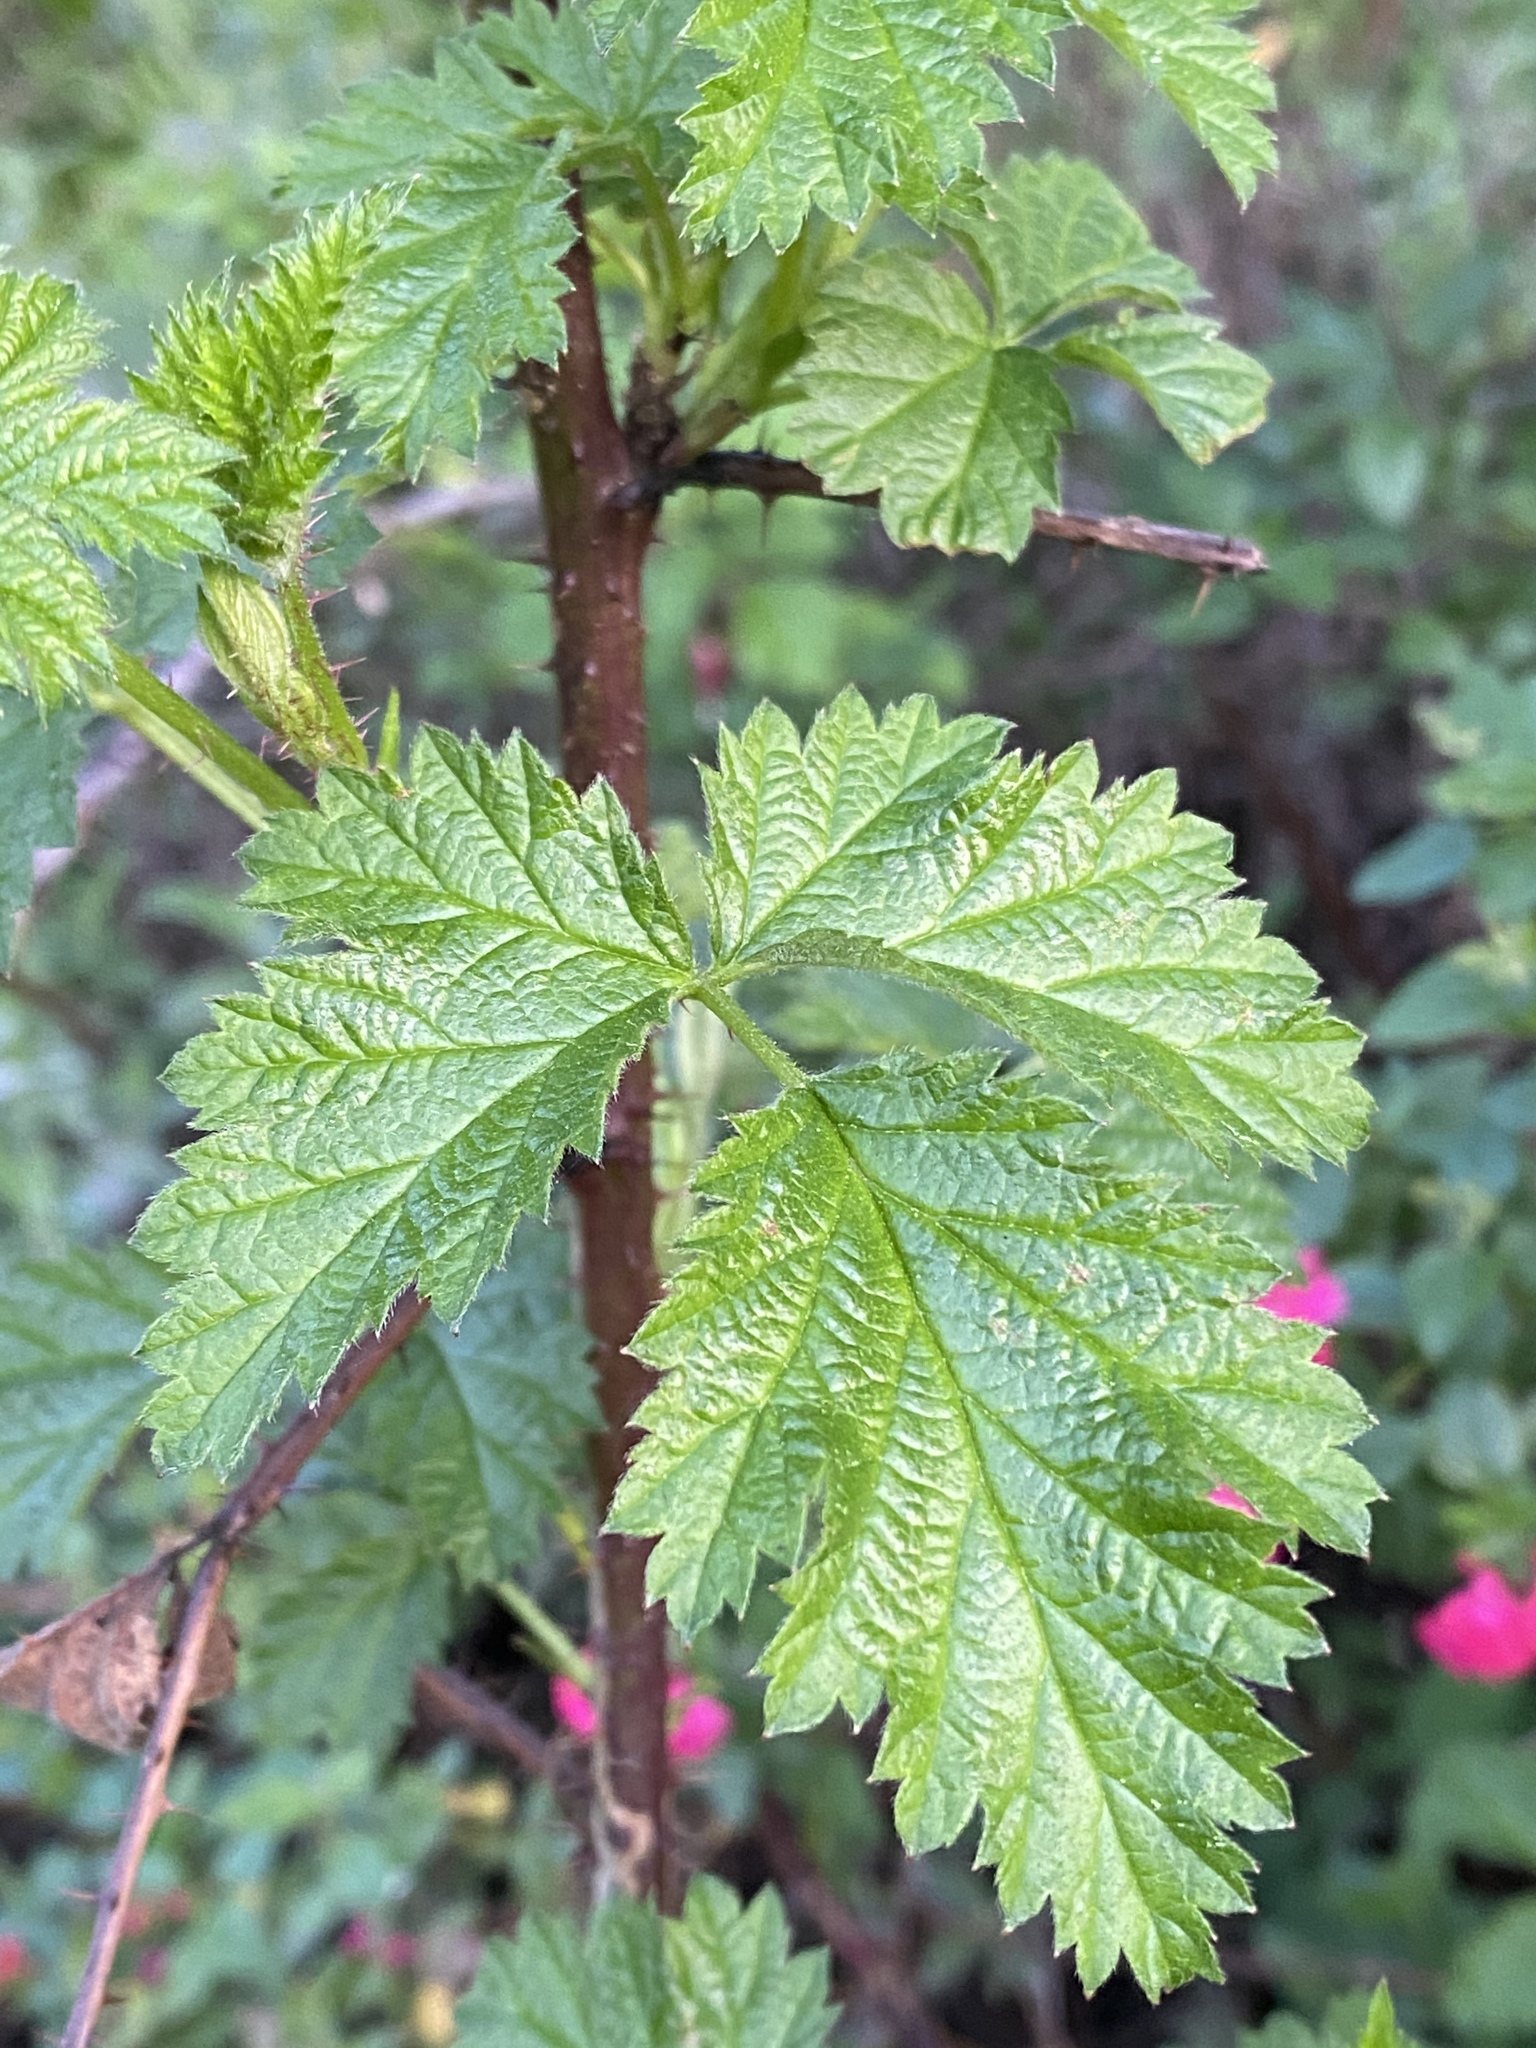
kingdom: Plantae
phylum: Tracheophyta
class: Magnoliopsida
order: Rosales
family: Rosaceae
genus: Rubus
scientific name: Rubus ursinus
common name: Pacific blackberry
